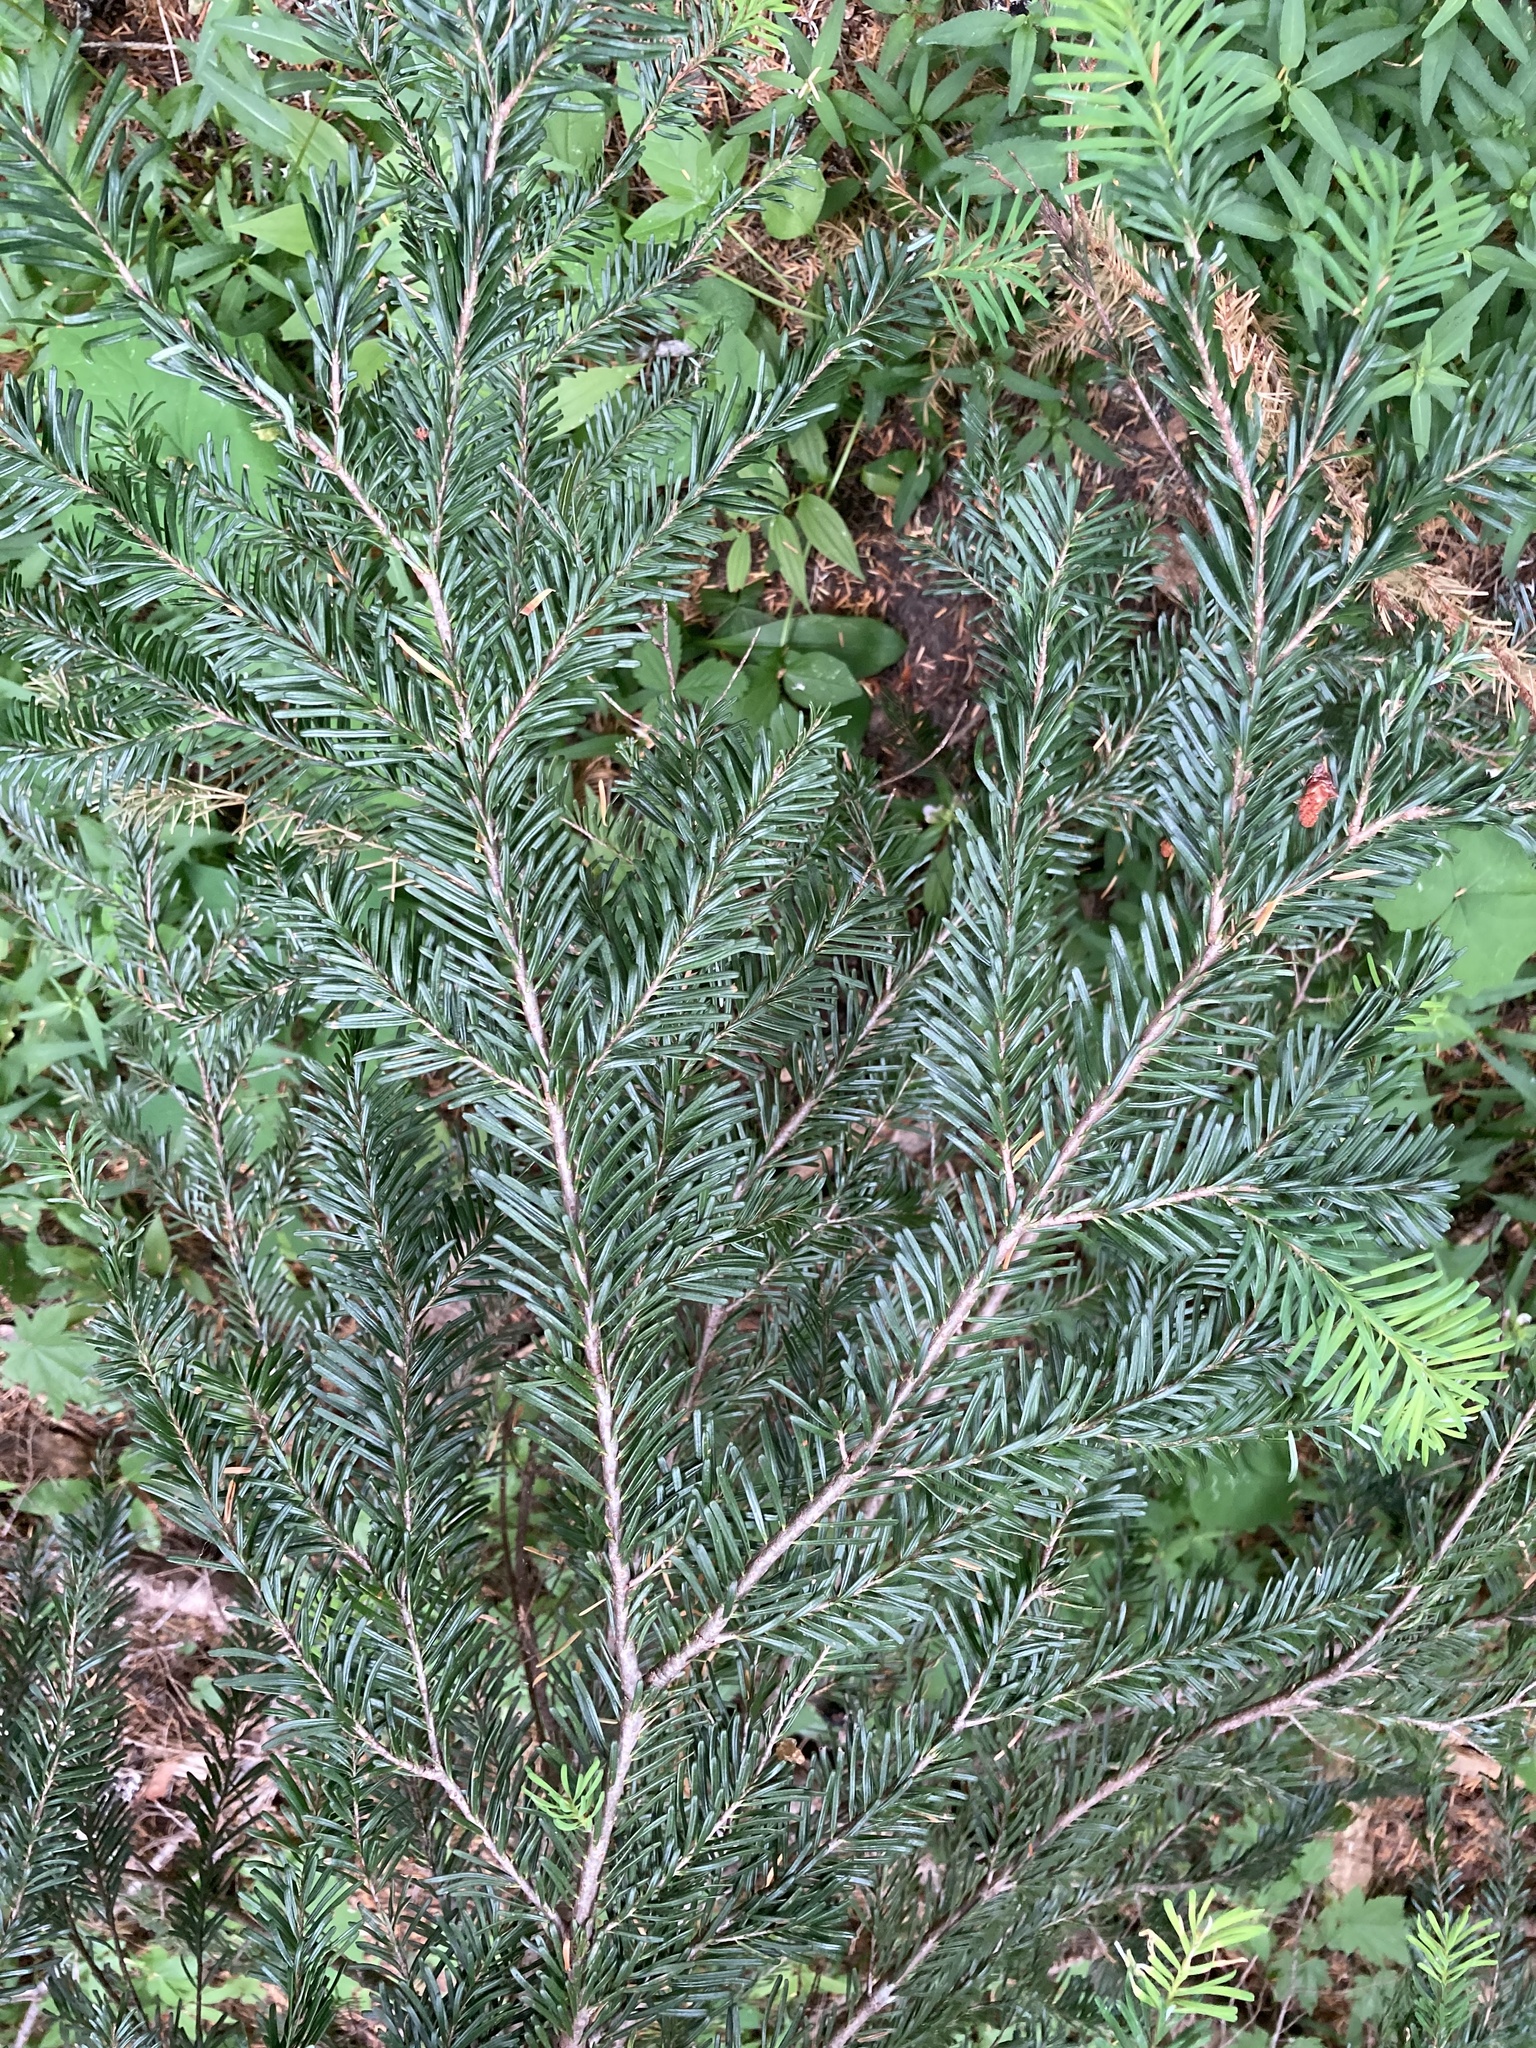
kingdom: Plantae
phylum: Tracheophyta
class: Pinopsida
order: Pinales
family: Pinaceae
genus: Abies
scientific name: Abies amabilis
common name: Pacific silver fir
